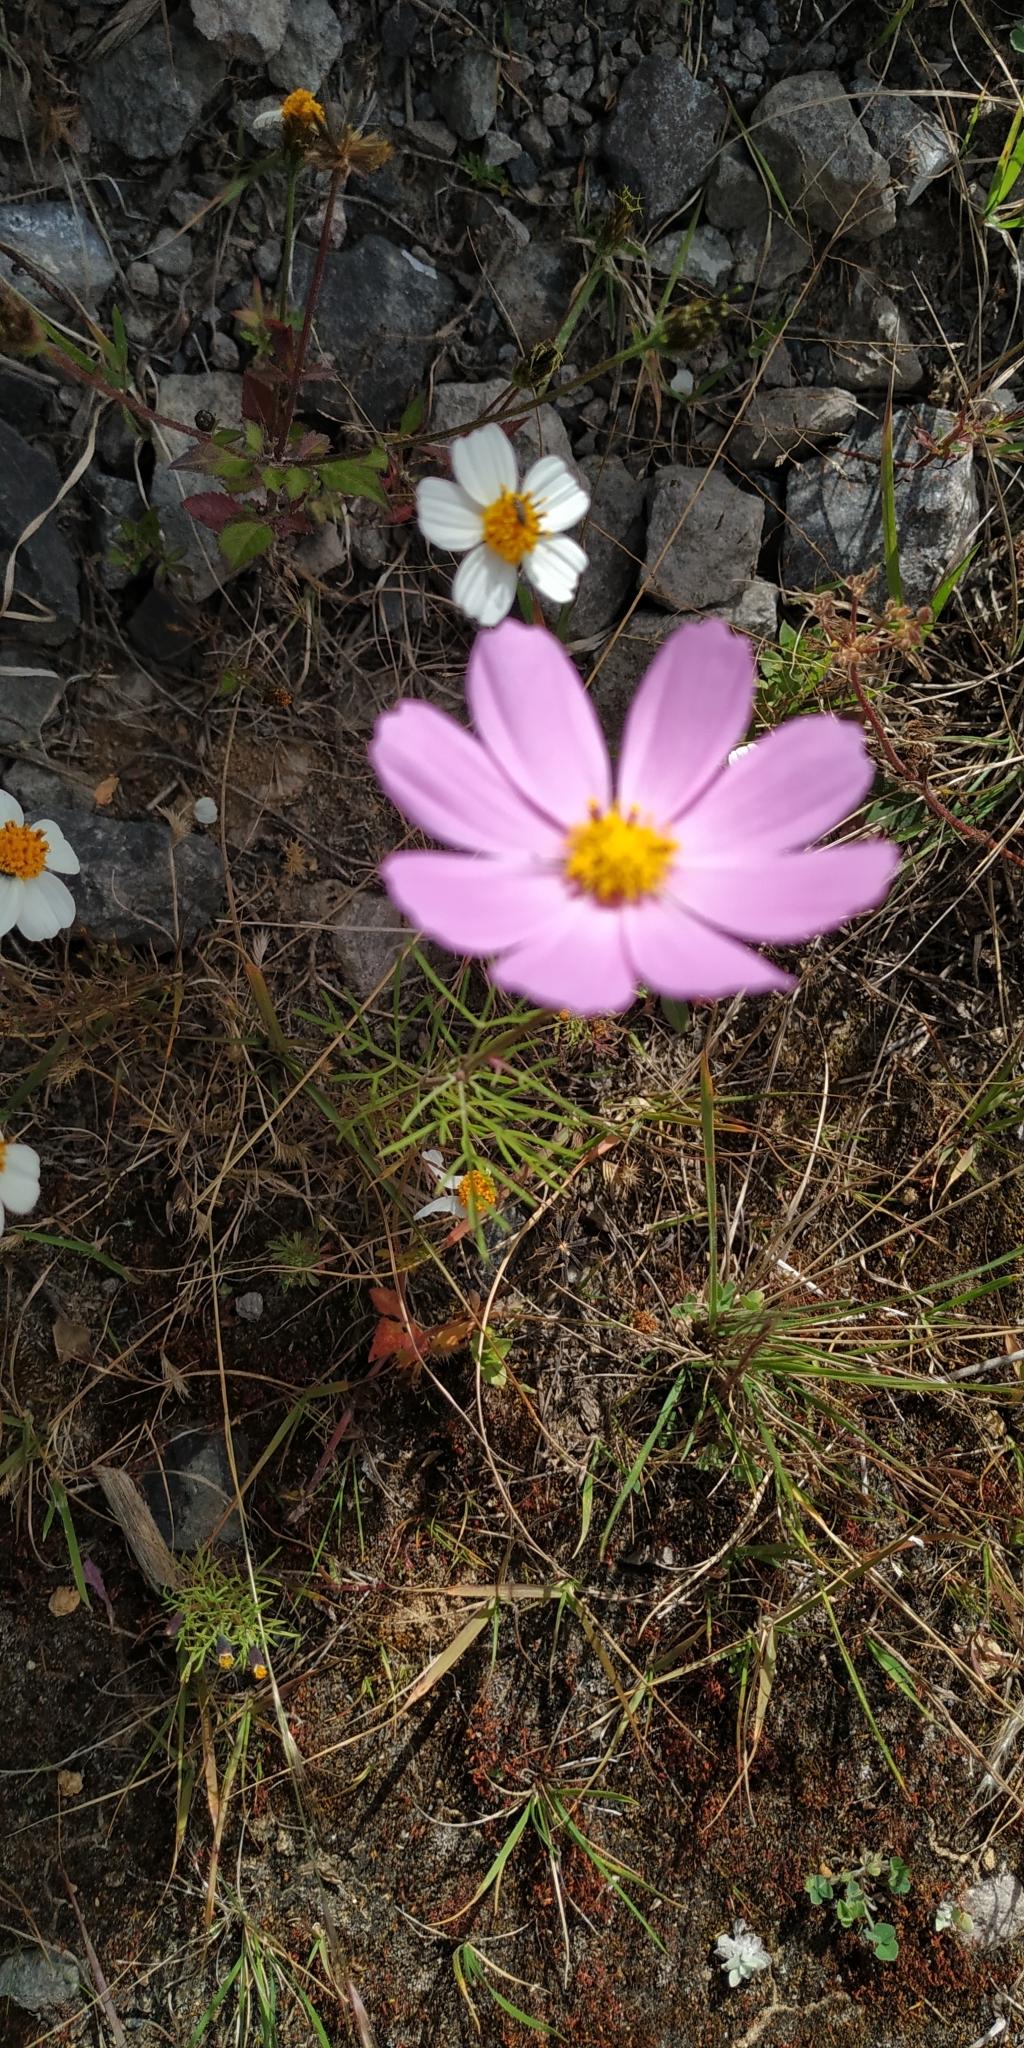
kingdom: Plantae
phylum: Tracheophyta
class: Magnoliopsida
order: Asterales
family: Asteraceae
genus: Cosmos
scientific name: Cosmos bipinnatus
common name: Garden cosmos
